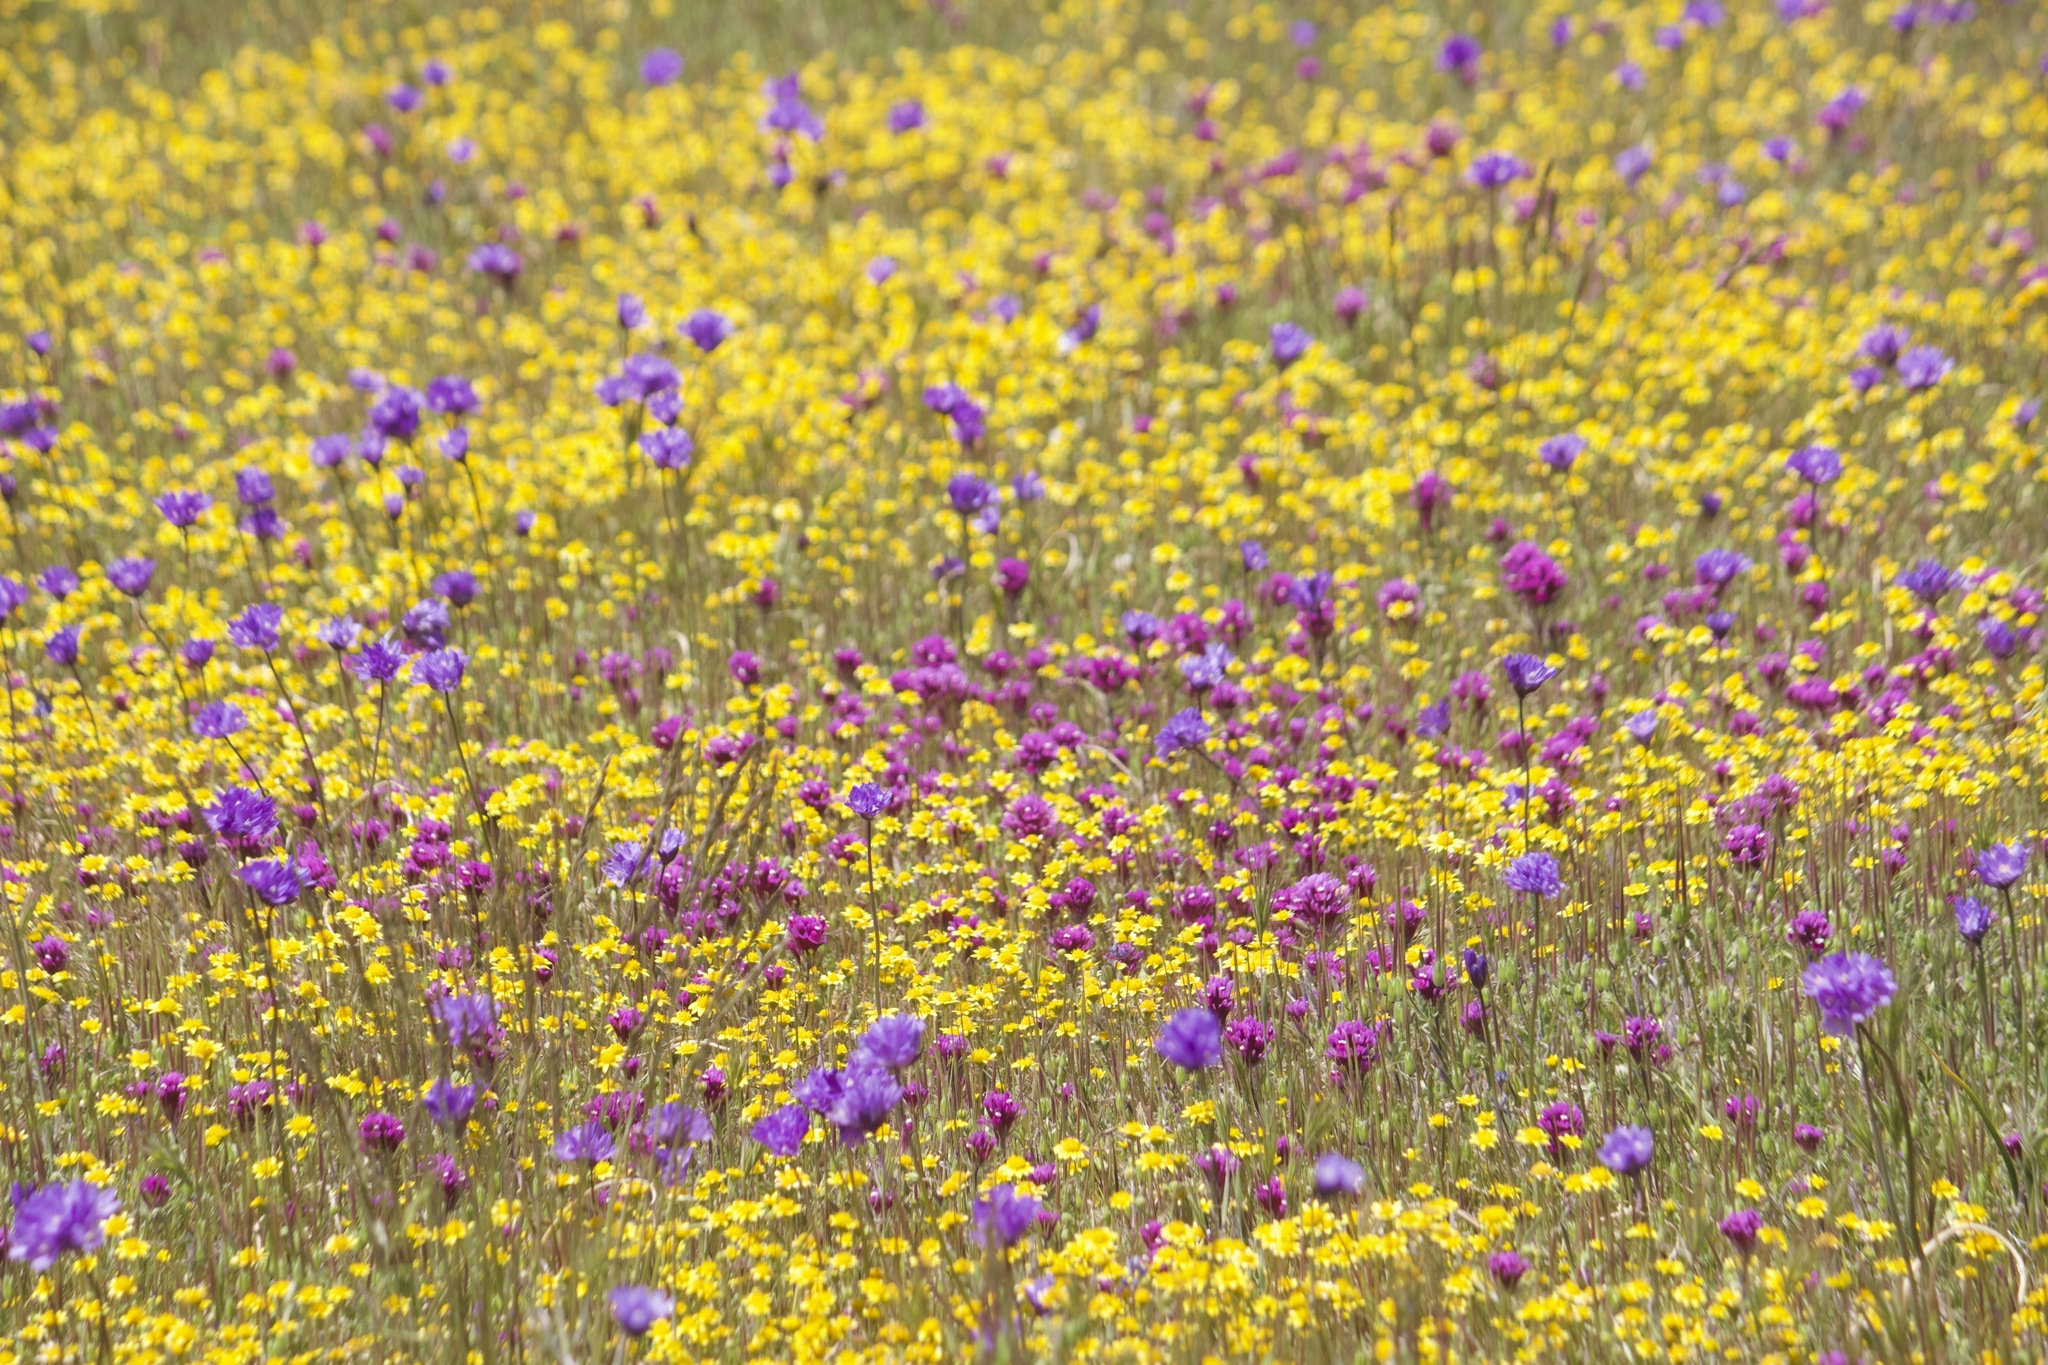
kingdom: Plantae
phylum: Tracheophyta
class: Liliopsida
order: Asparagales
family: Asparagaceae
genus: Dipterostemon
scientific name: Dipterostemon capitatus
